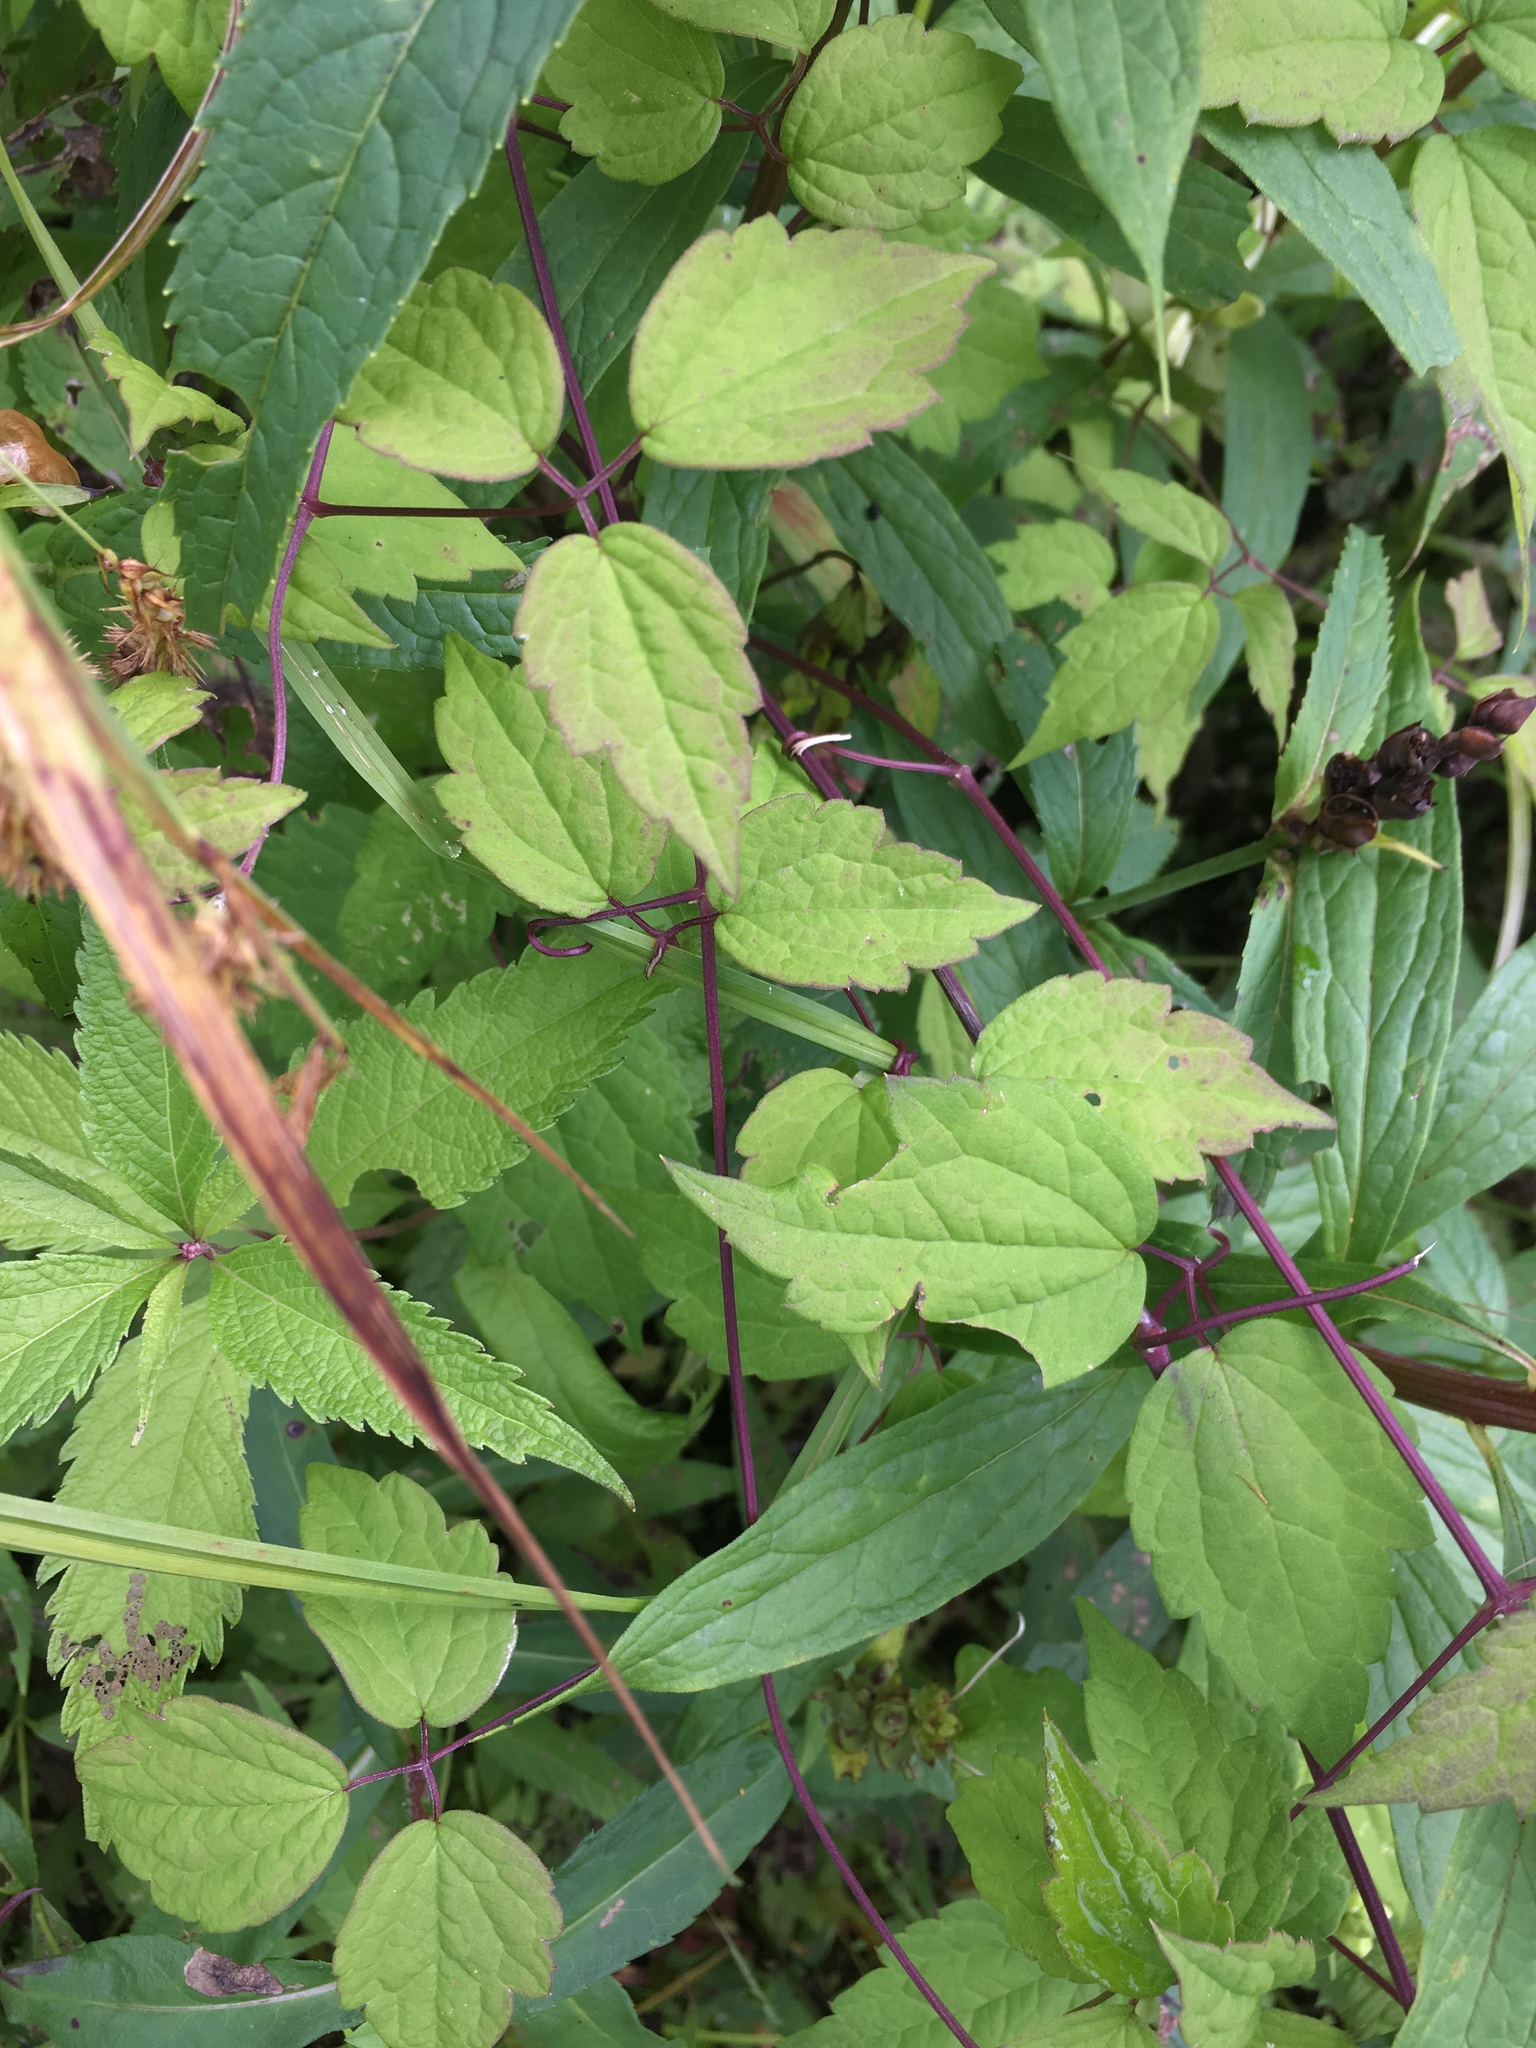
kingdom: Plantae
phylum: Tracheophyta
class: Magnoliopsida
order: Ranunculales
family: Ranunculaceae
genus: Clematis
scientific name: Clematis virginiana
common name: Virgin's-bower
